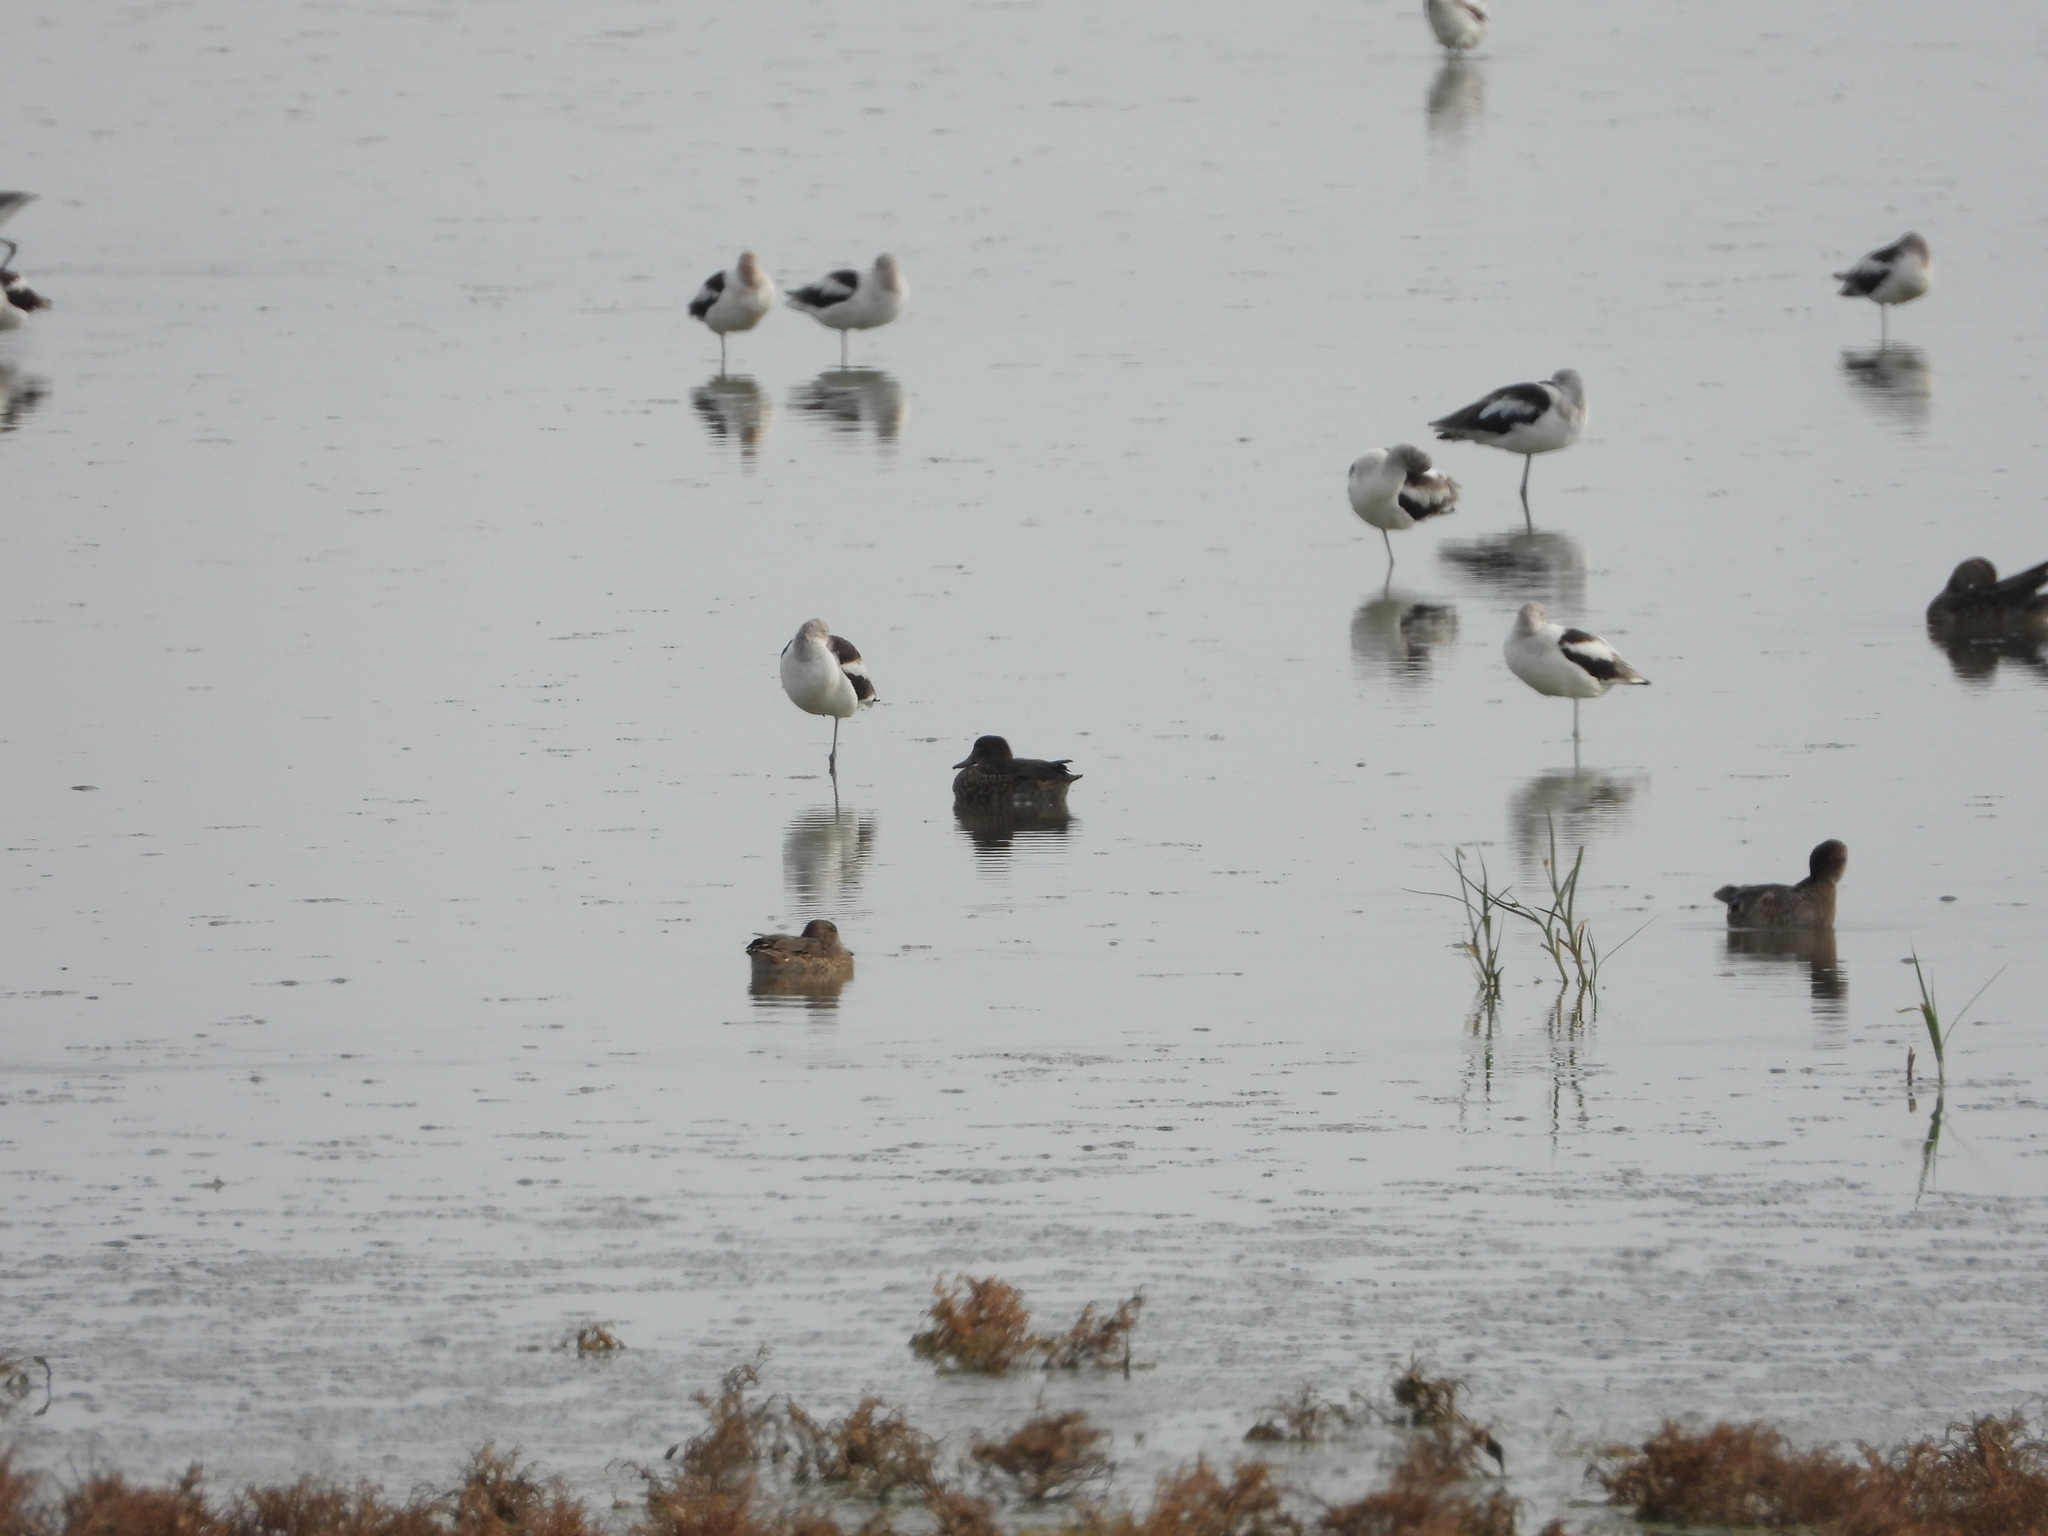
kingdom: Animalia
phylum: Chordata
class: Aves
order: Anseriformes
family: Anatidae
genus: Anas
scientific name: Anas crecca
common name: Eurasian teal
